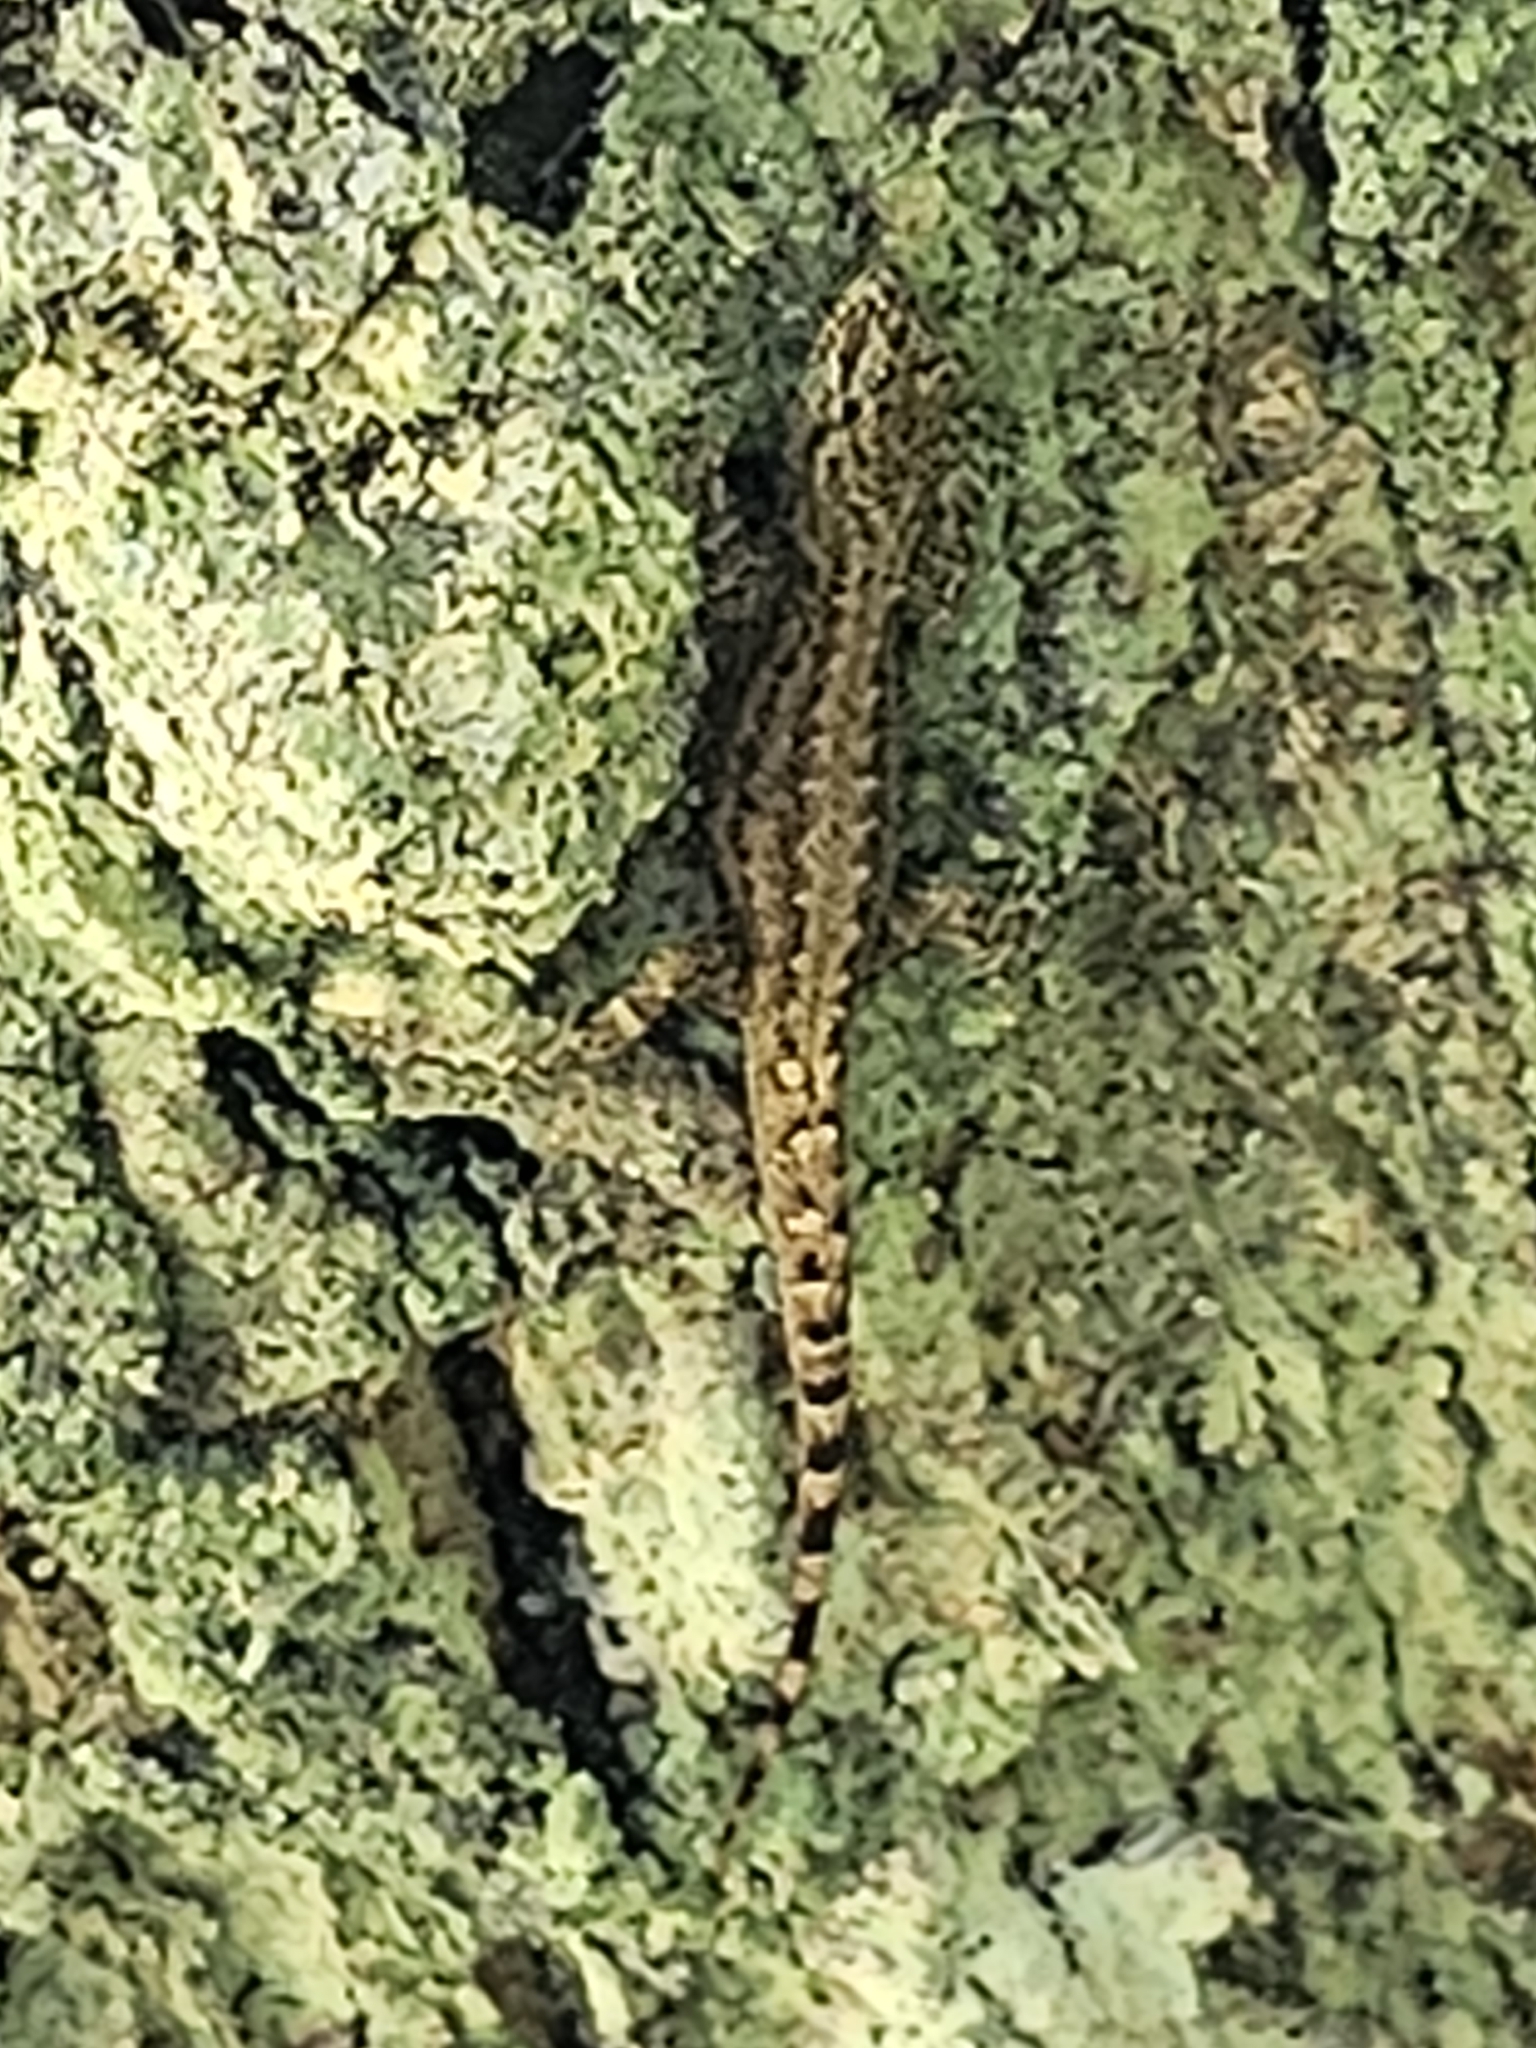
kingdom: Animalia
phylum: Chordata
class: Squamata
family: Sphaerodactylidae
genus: Gonatodes
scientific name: Gonatodes humeralis
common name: South american clawed gecko
